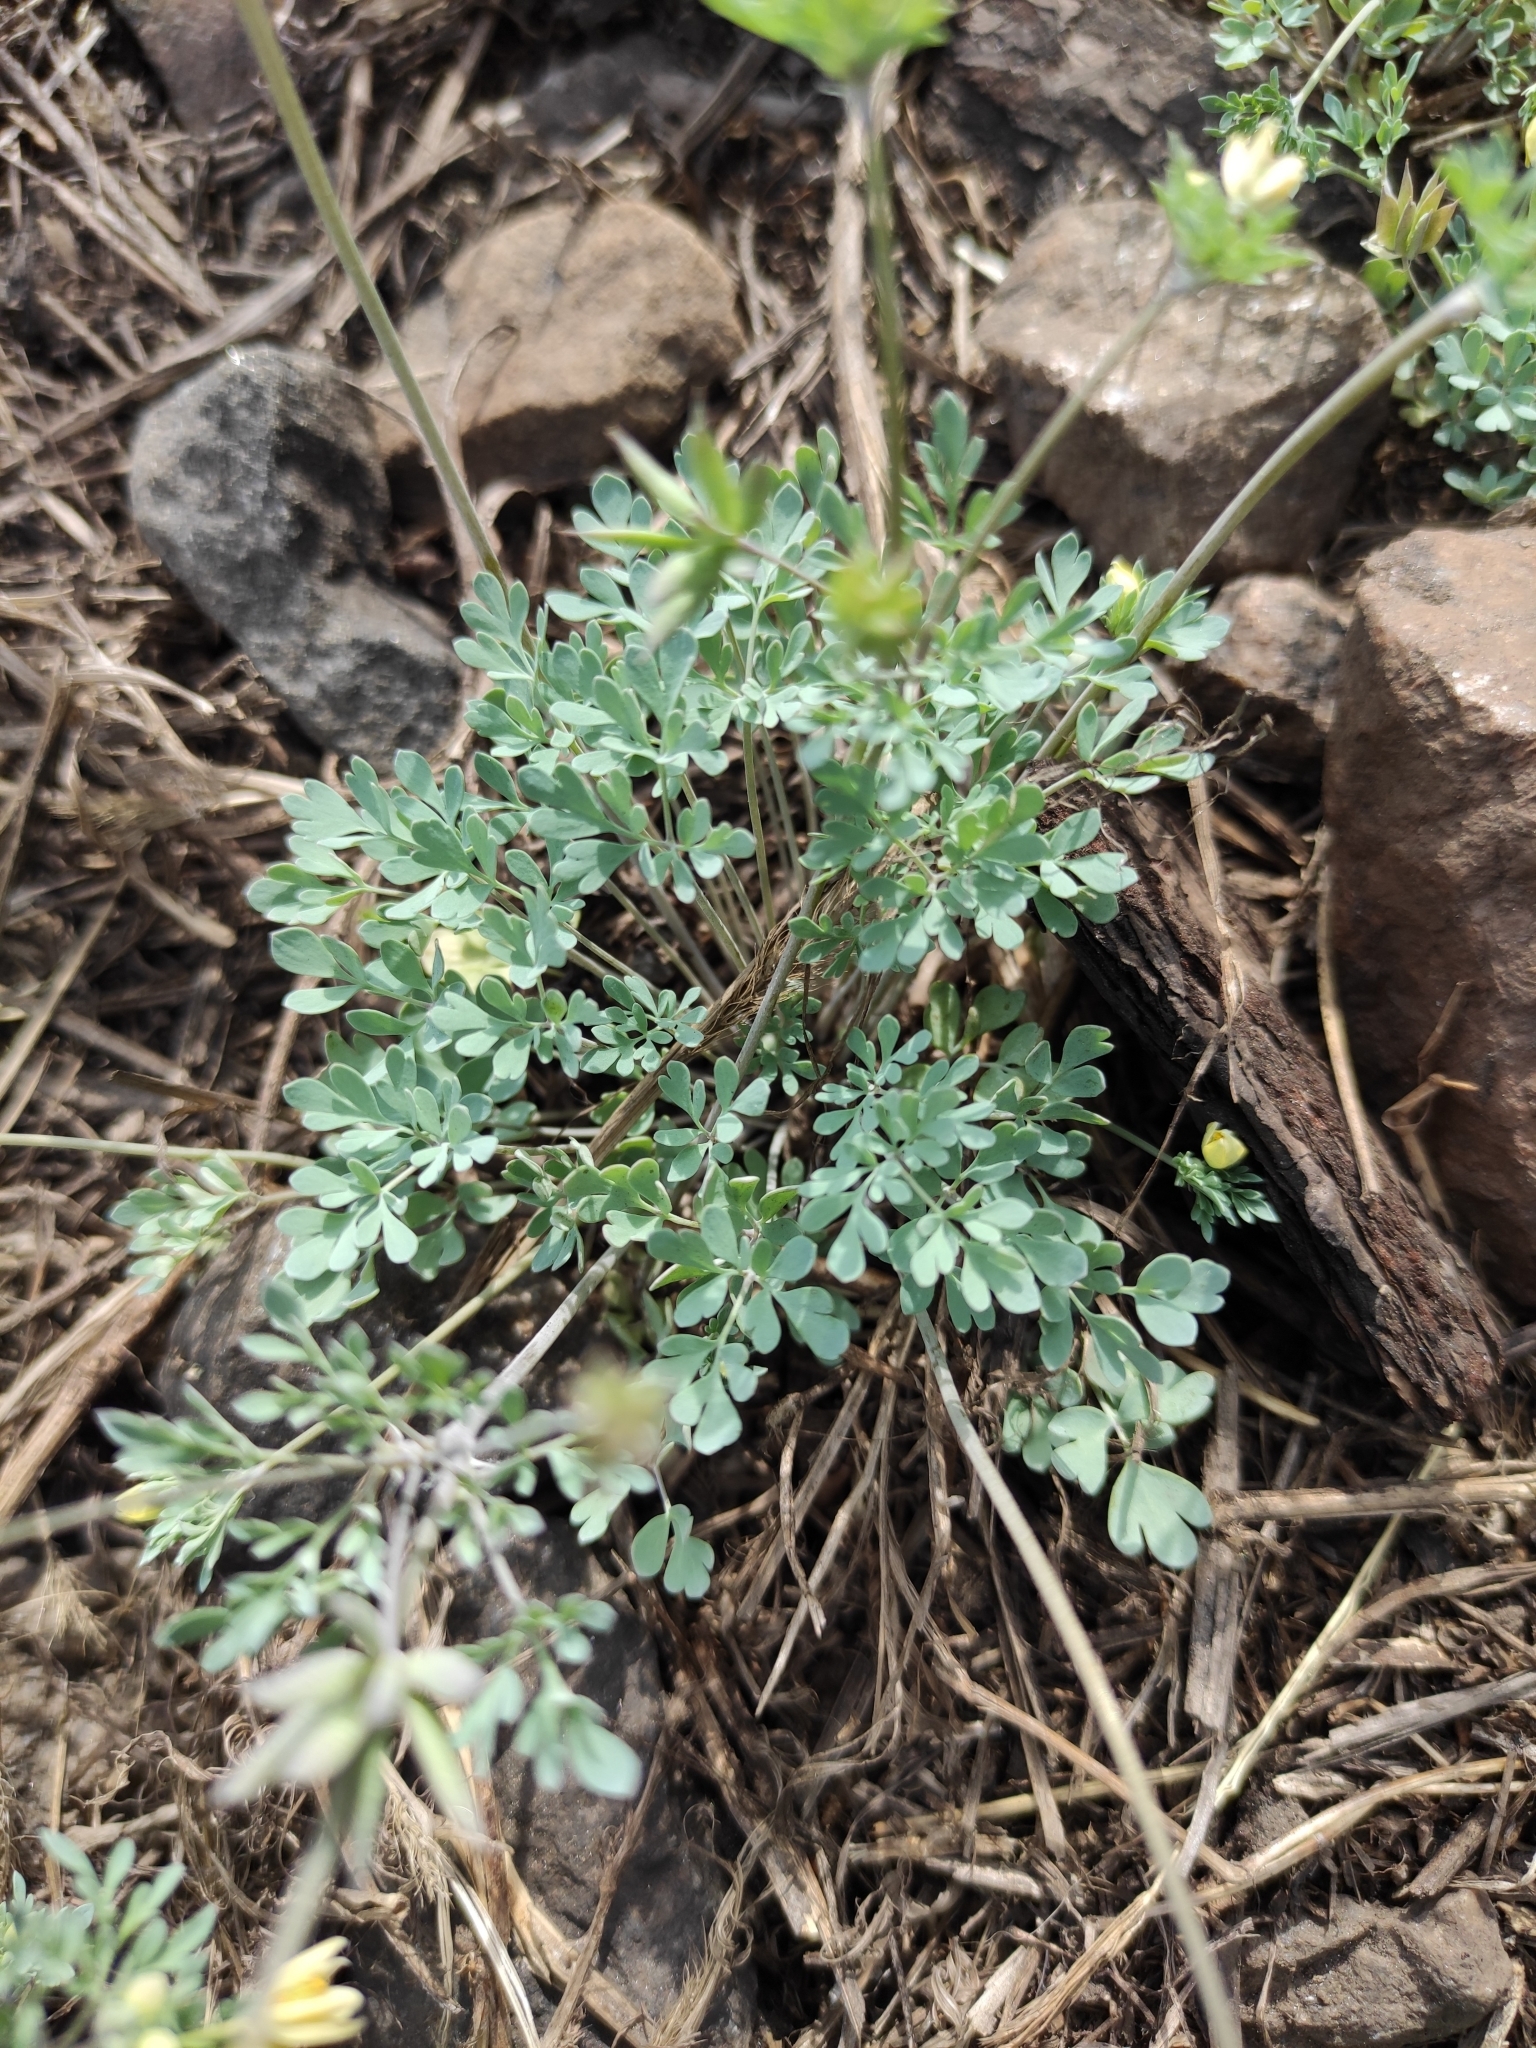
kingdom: Plantae
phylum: Tracheophyta
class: Magnoliopsida
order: Ranunculales
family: Ranunculaceae
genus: Leptopyrum
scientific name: Leptopyrum fumarioides
